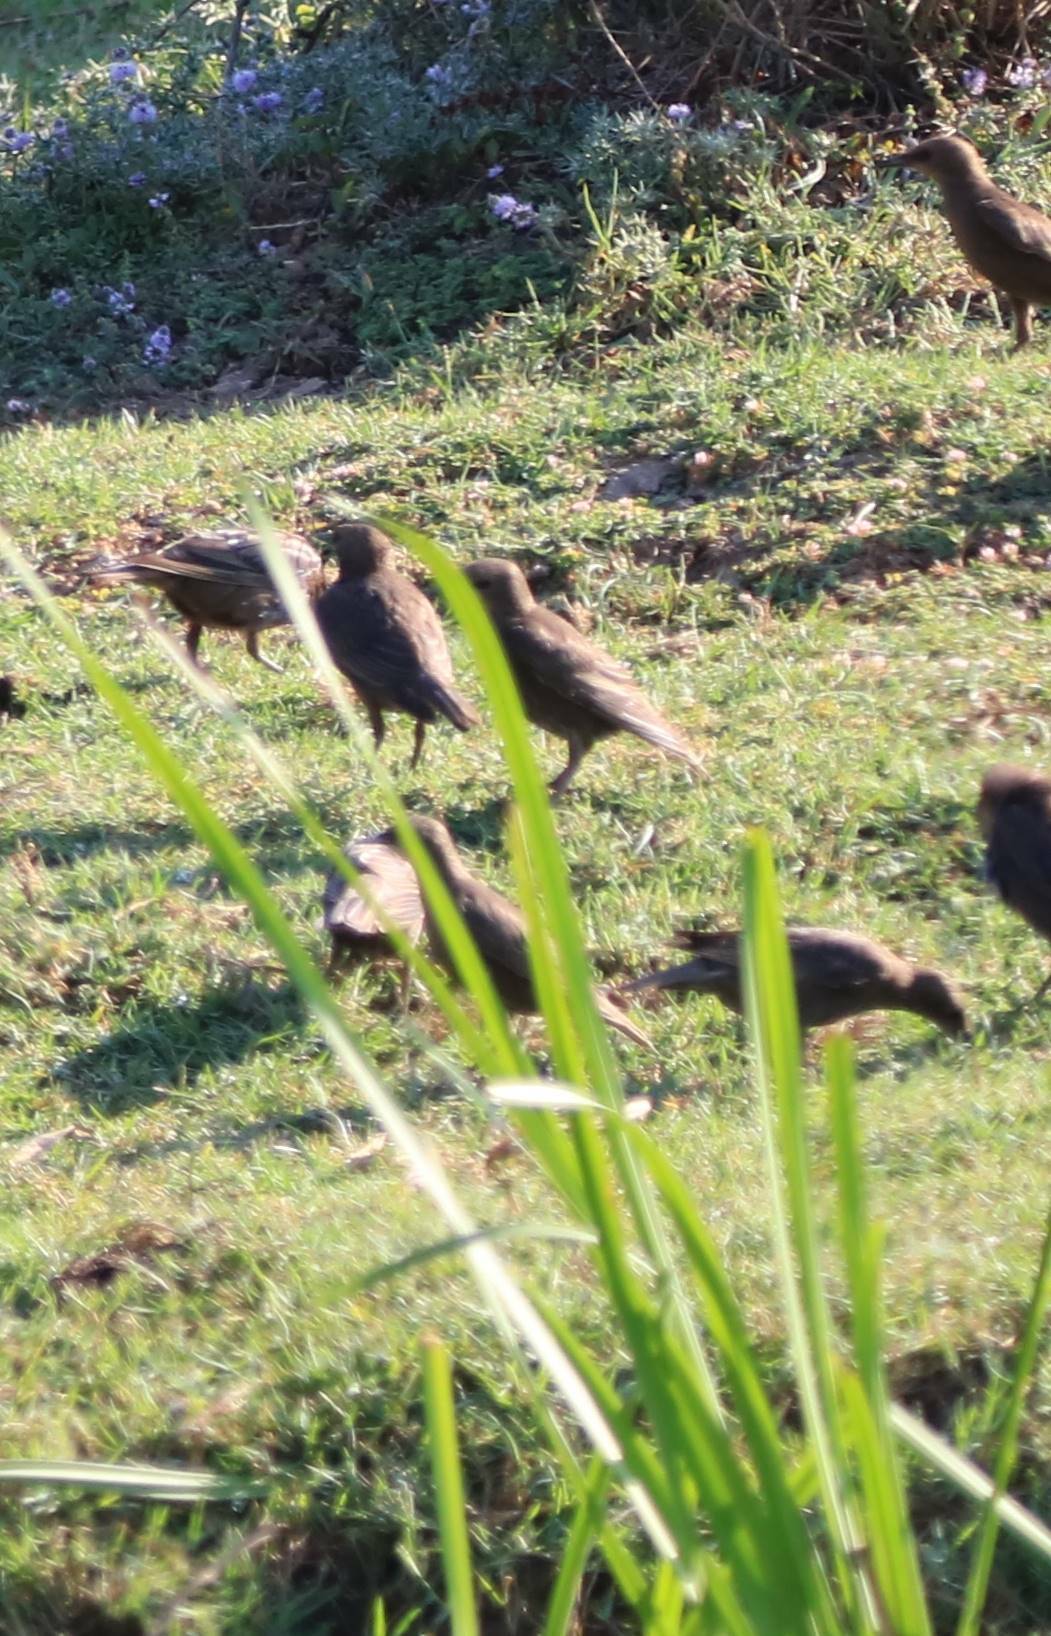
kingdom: Animalia
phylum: Chordata
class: Aves
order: Passeriformes
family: Sturnidae
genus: Sturnus
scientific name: Sturnus unicolor
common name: Spotless starling
